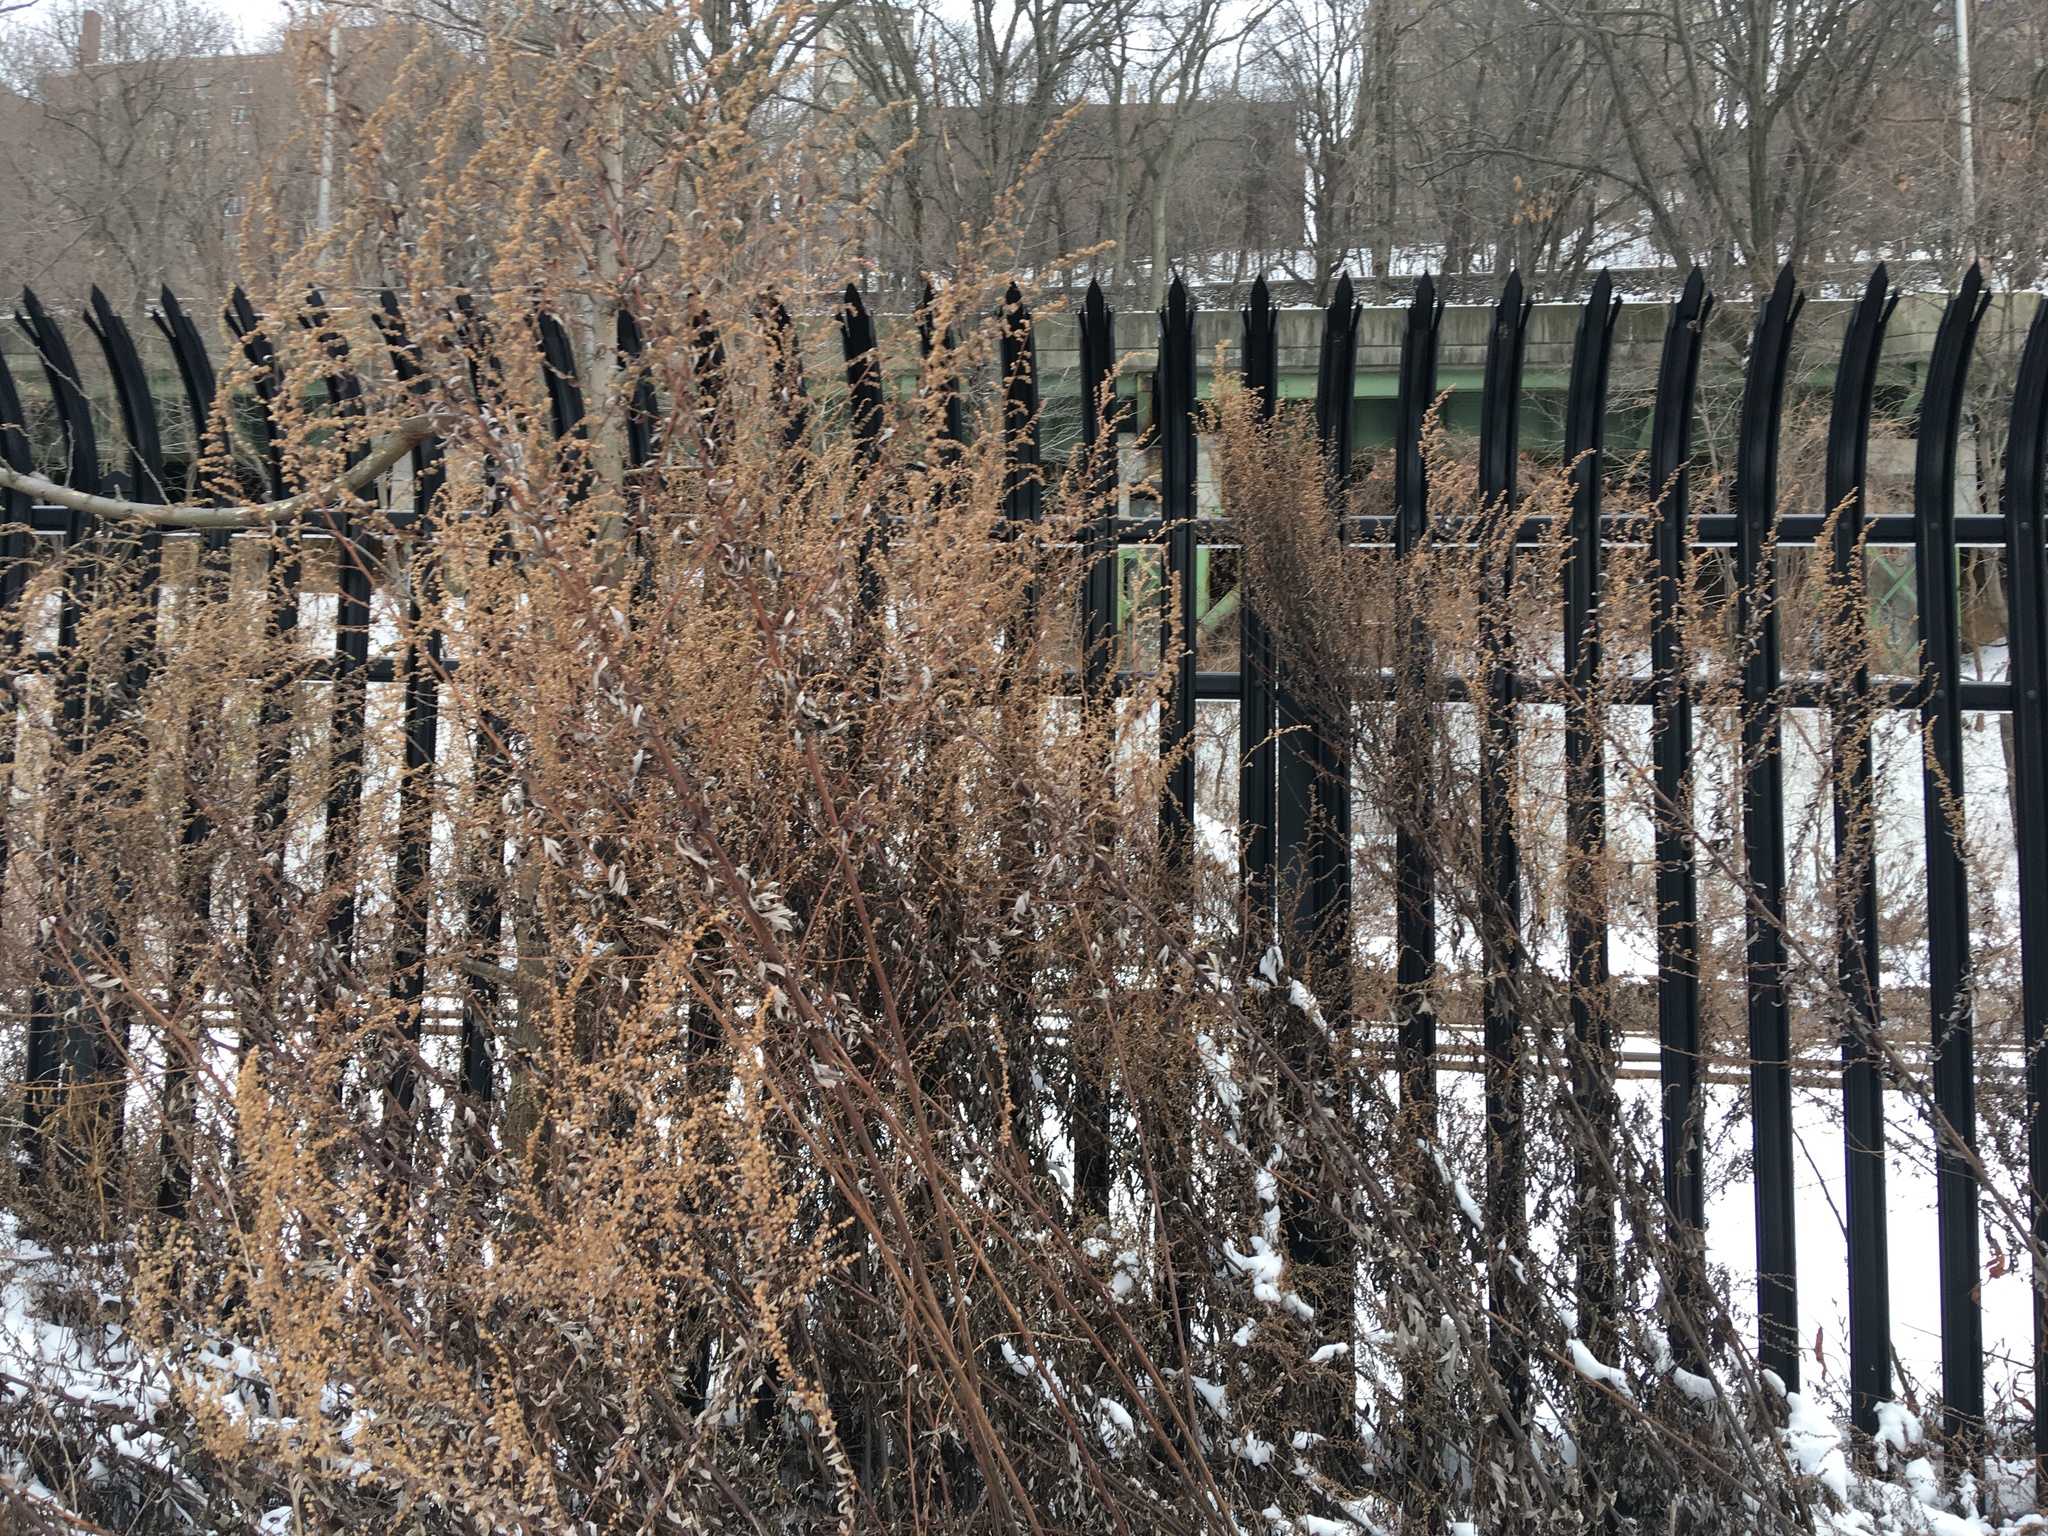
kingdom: Plantae
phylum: Tracheophyta
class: Magnoliopsida
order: Asterales
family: Asteraceae
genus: Artemisia
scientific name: Artemisia vulgaris
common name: Mugwort
